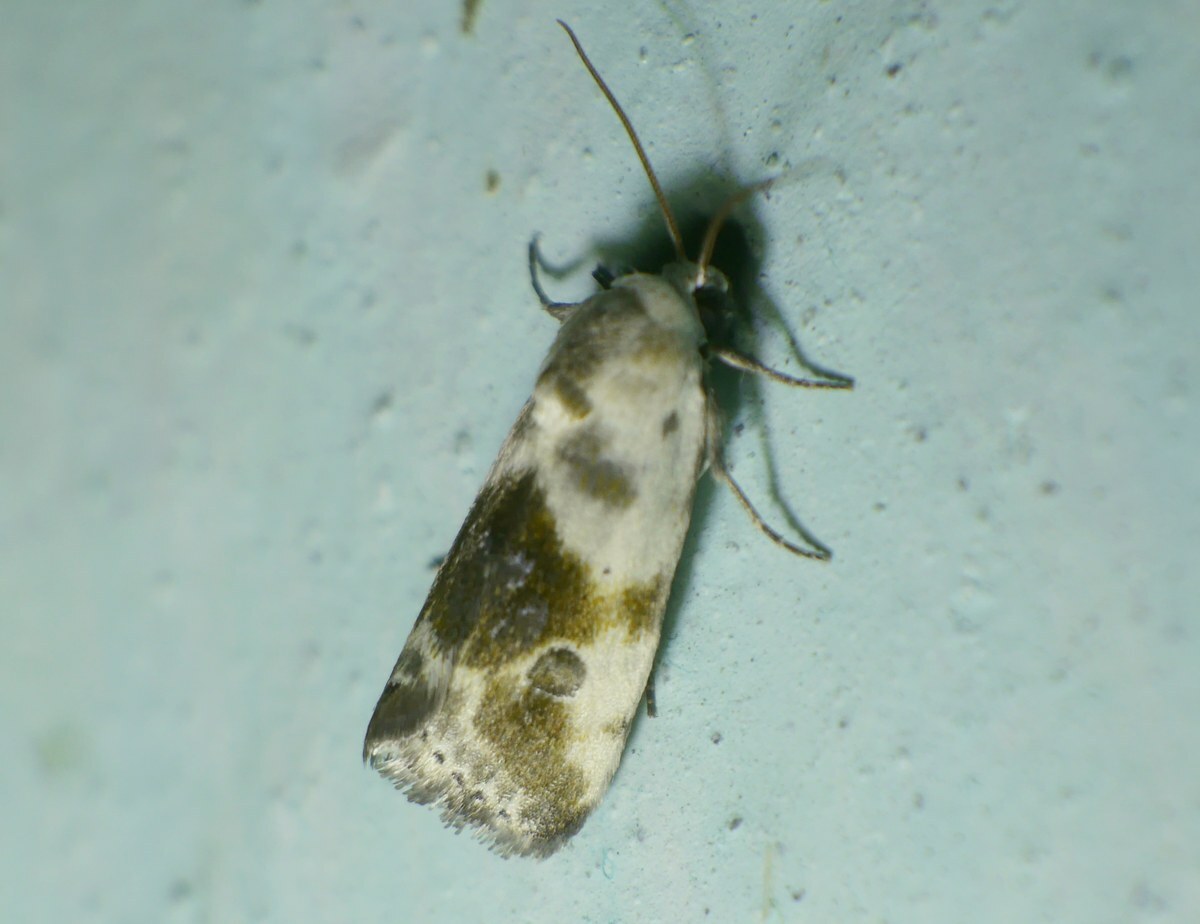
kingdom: Animalia
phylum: Arthropoda
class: Insecta
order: Lepidoptera
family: Noctuidae
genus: Acontia
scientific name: Acontia candefacta
